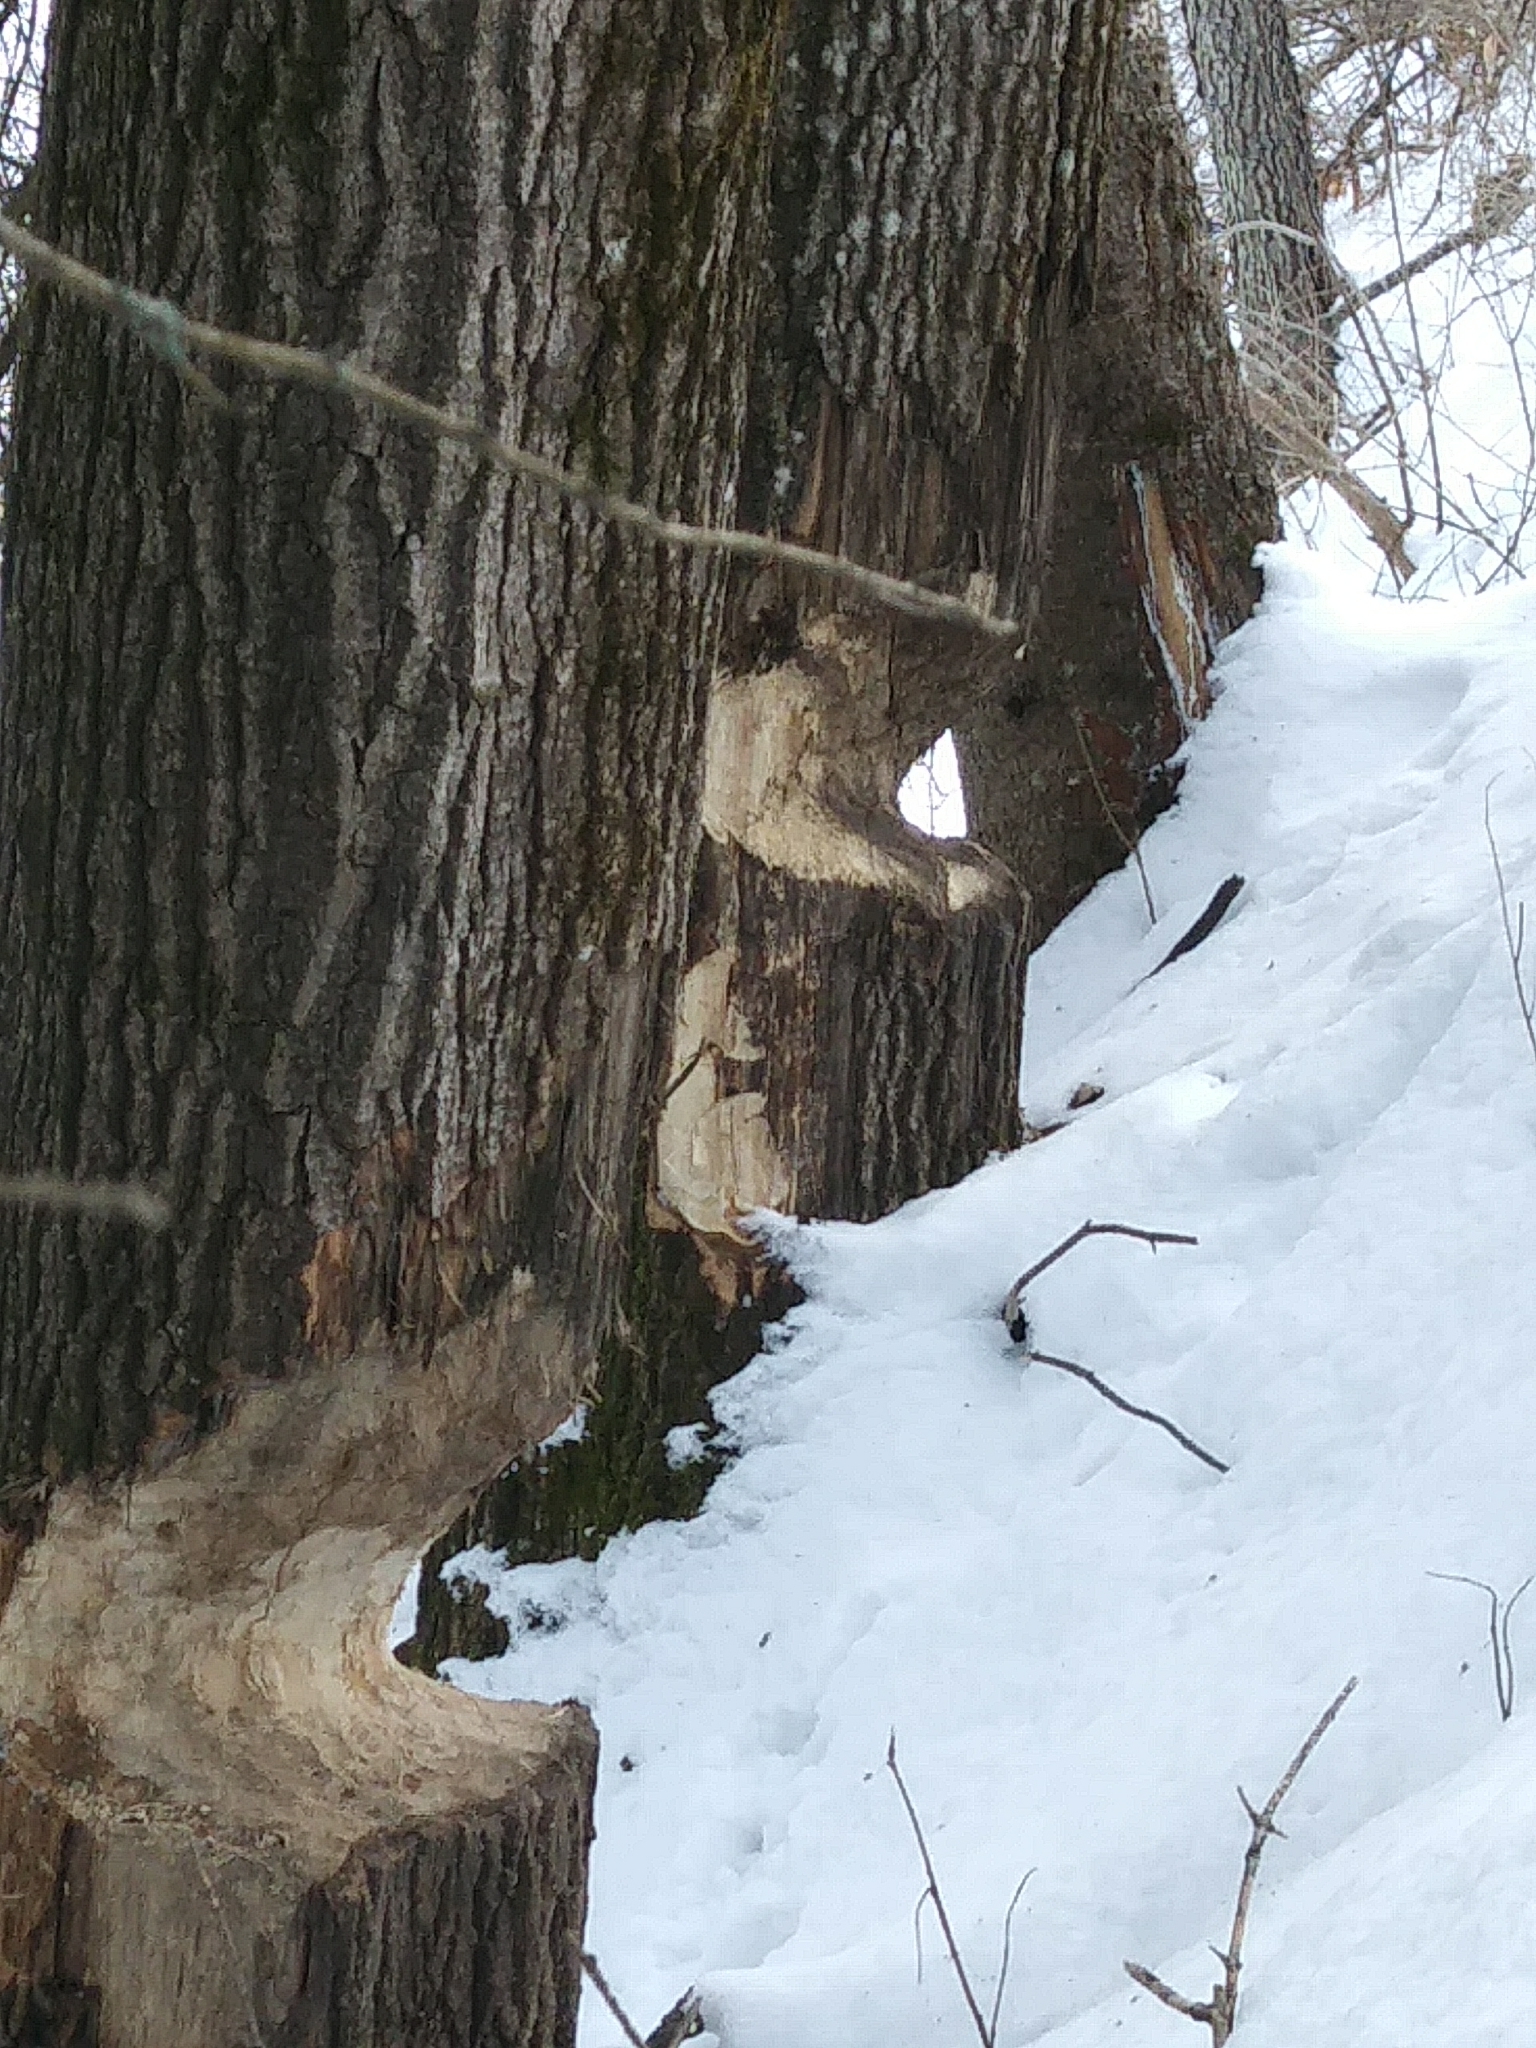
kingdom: Animalia
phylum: Chordata
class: Mammalia
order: Rodentia
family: Castoridae
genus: Castor
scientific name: Castor canadensis
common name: American beaver
